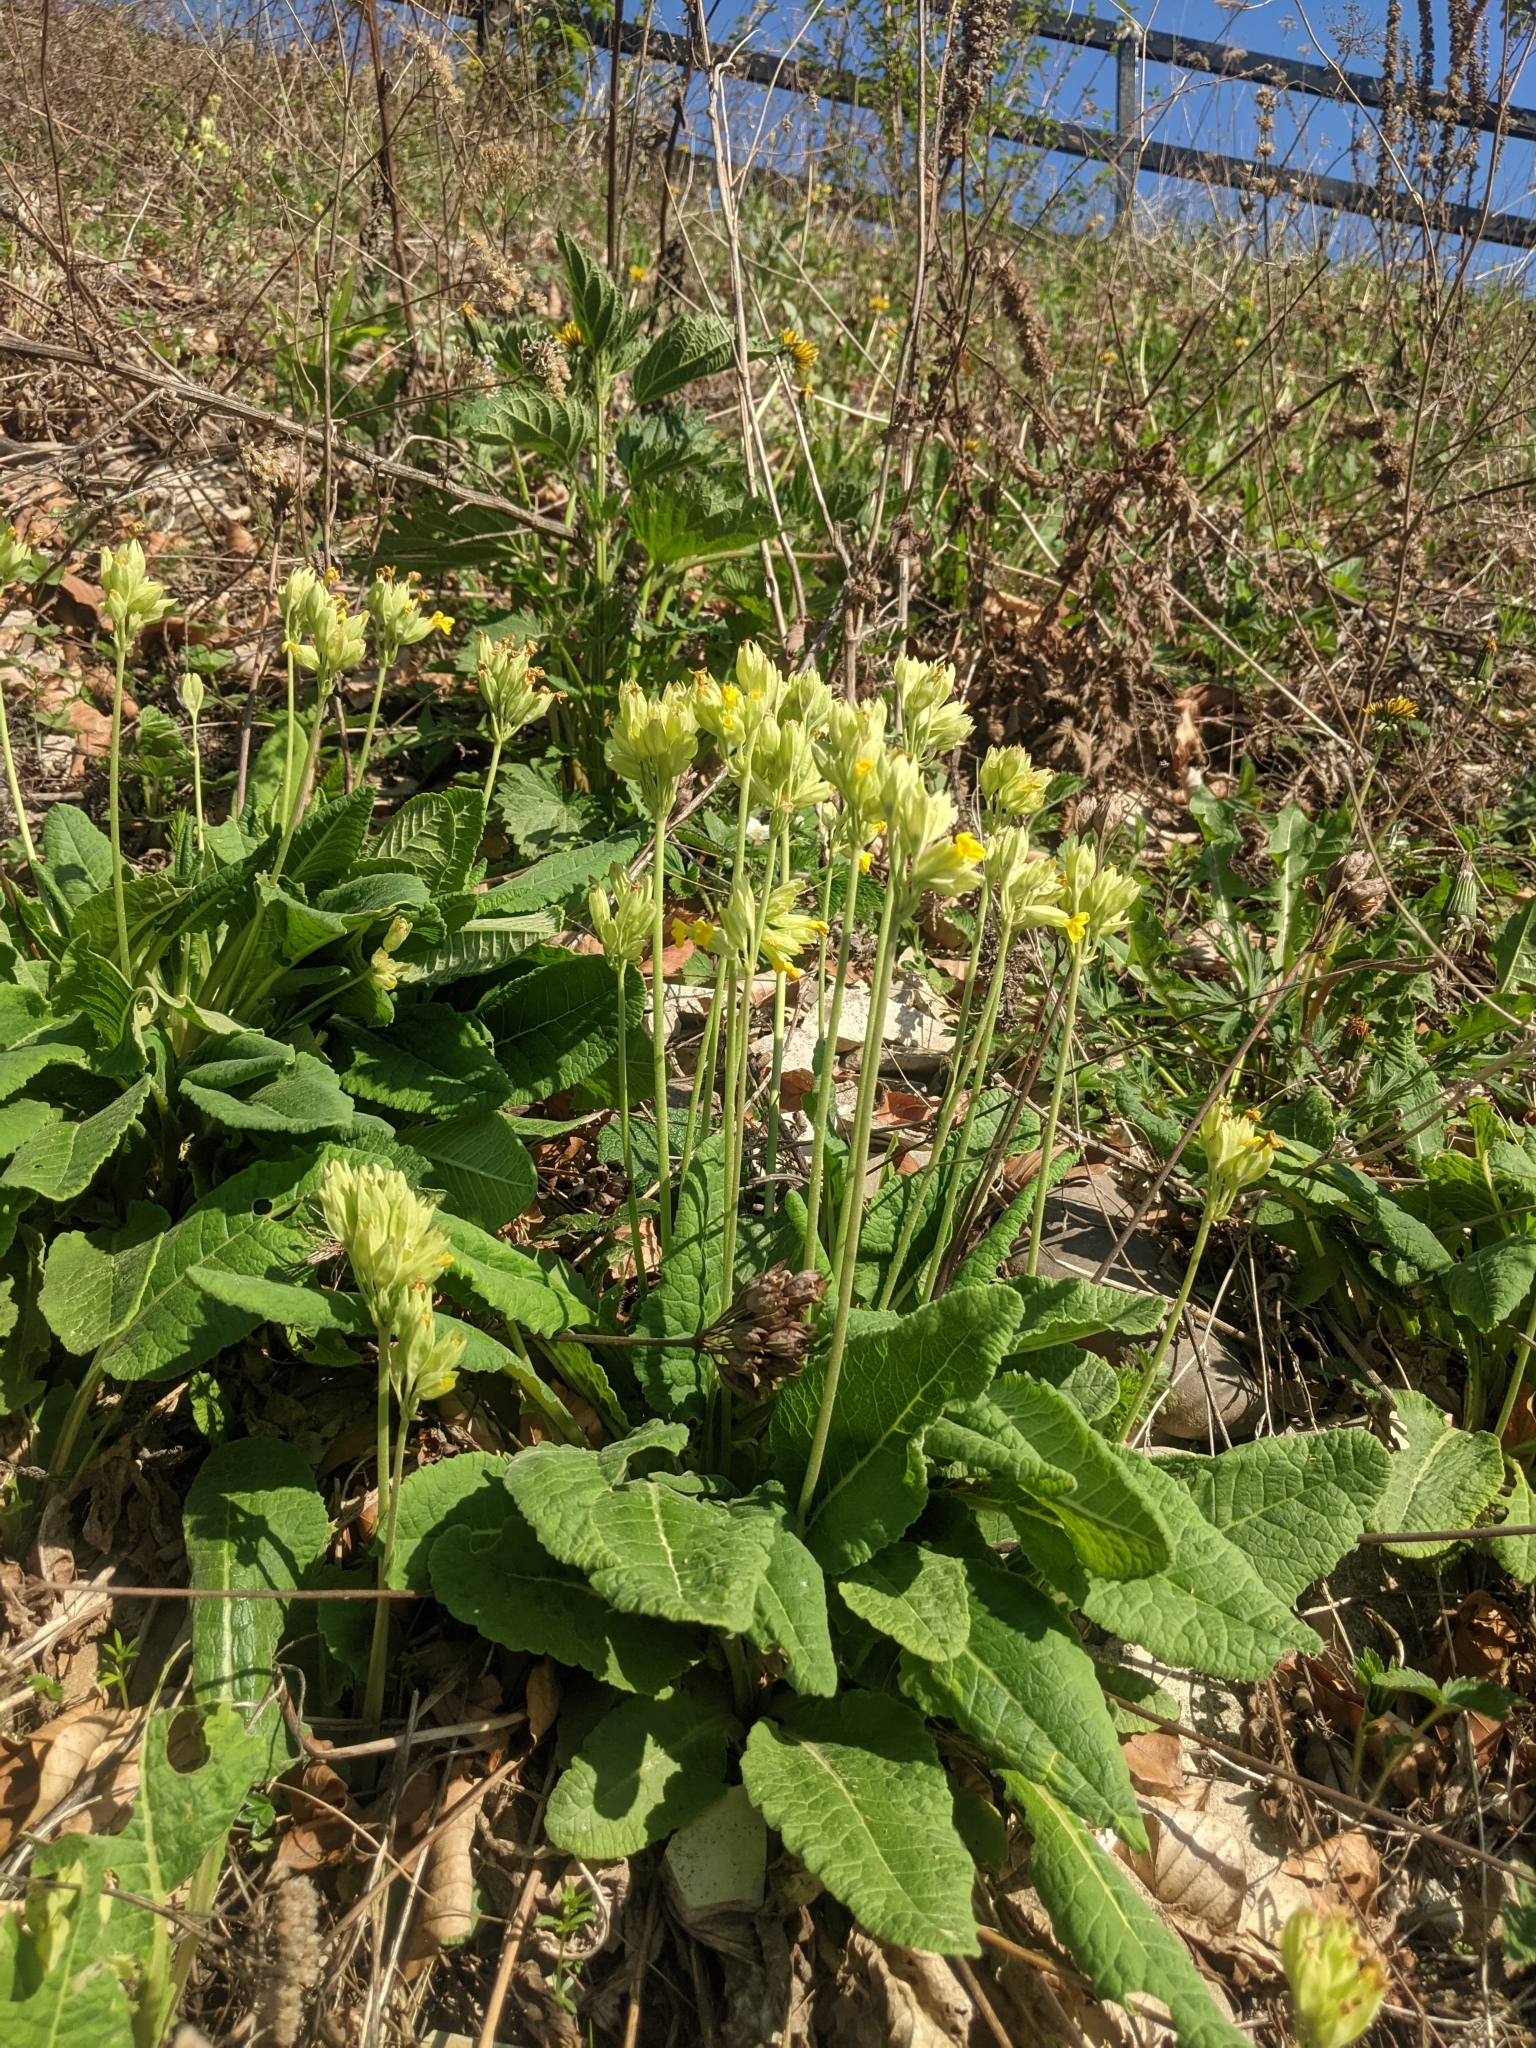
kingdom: Plantae
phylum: Tracheophyta
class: Magnoliopsida
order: Ericales
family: Primulaceae
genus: Primula
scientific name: Primula veris
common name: Cowslip
